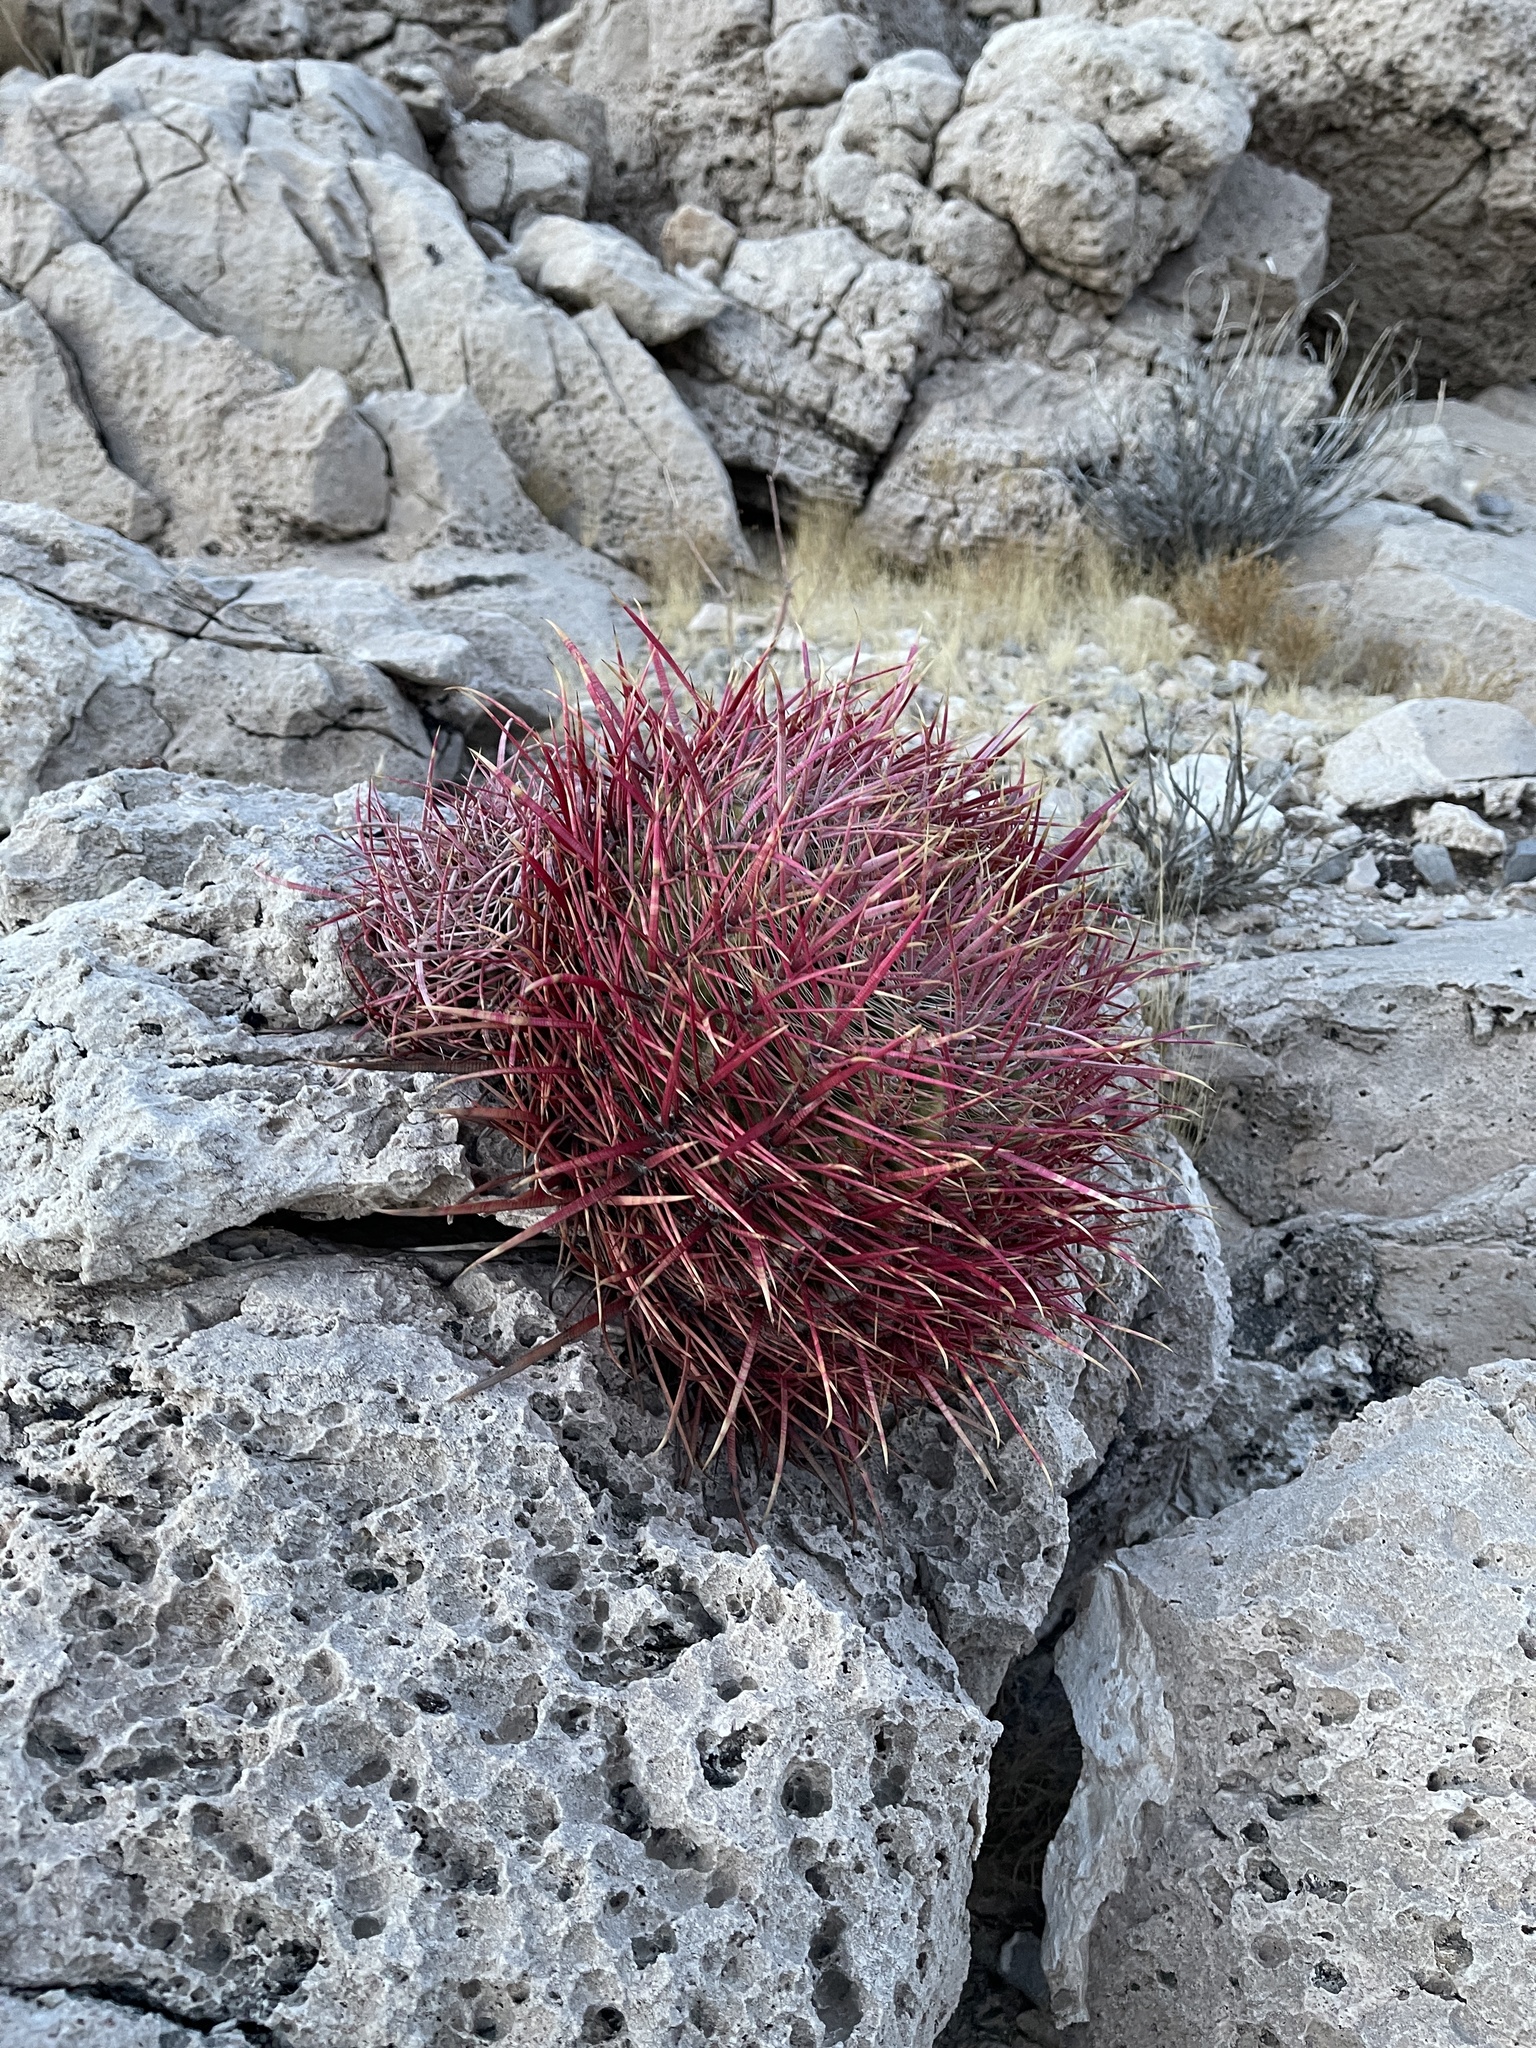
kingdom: Plantae
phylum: Tracheophyta
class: Magnoliopsida
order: Caryophyllales
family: Cactaceae
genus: Ferocactus
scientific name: Ferocactus cylindraceus
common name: California barrel cactus
